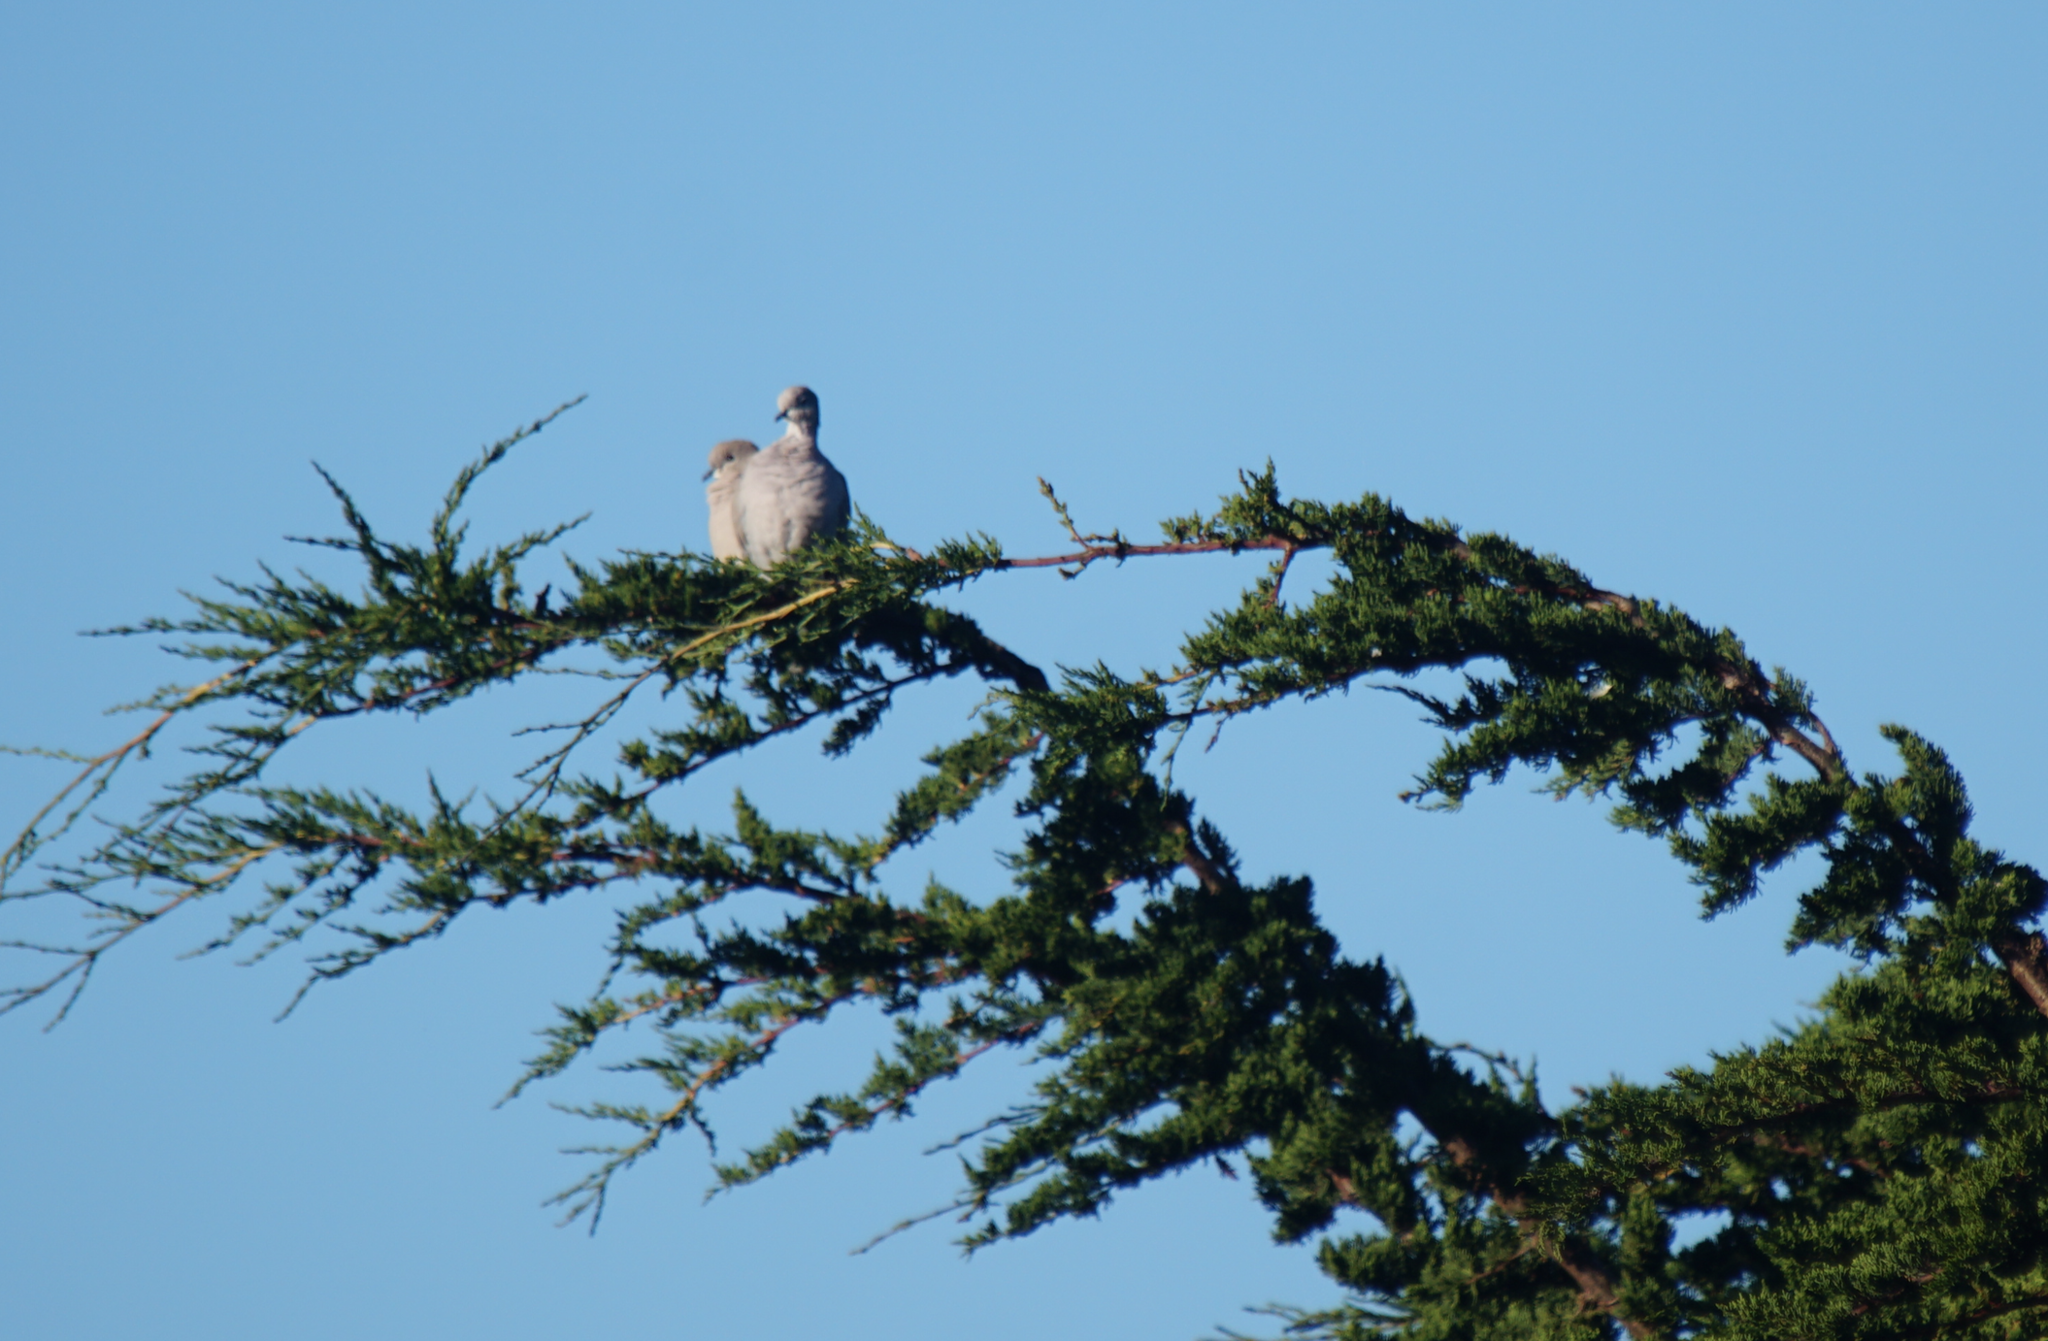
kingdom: Animalia
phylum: Chordata
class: Aves
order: Columbiformes
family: Columbidae
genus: Streptopelia
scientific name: Streptopelia decaocto
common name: Eurasian collared dove
